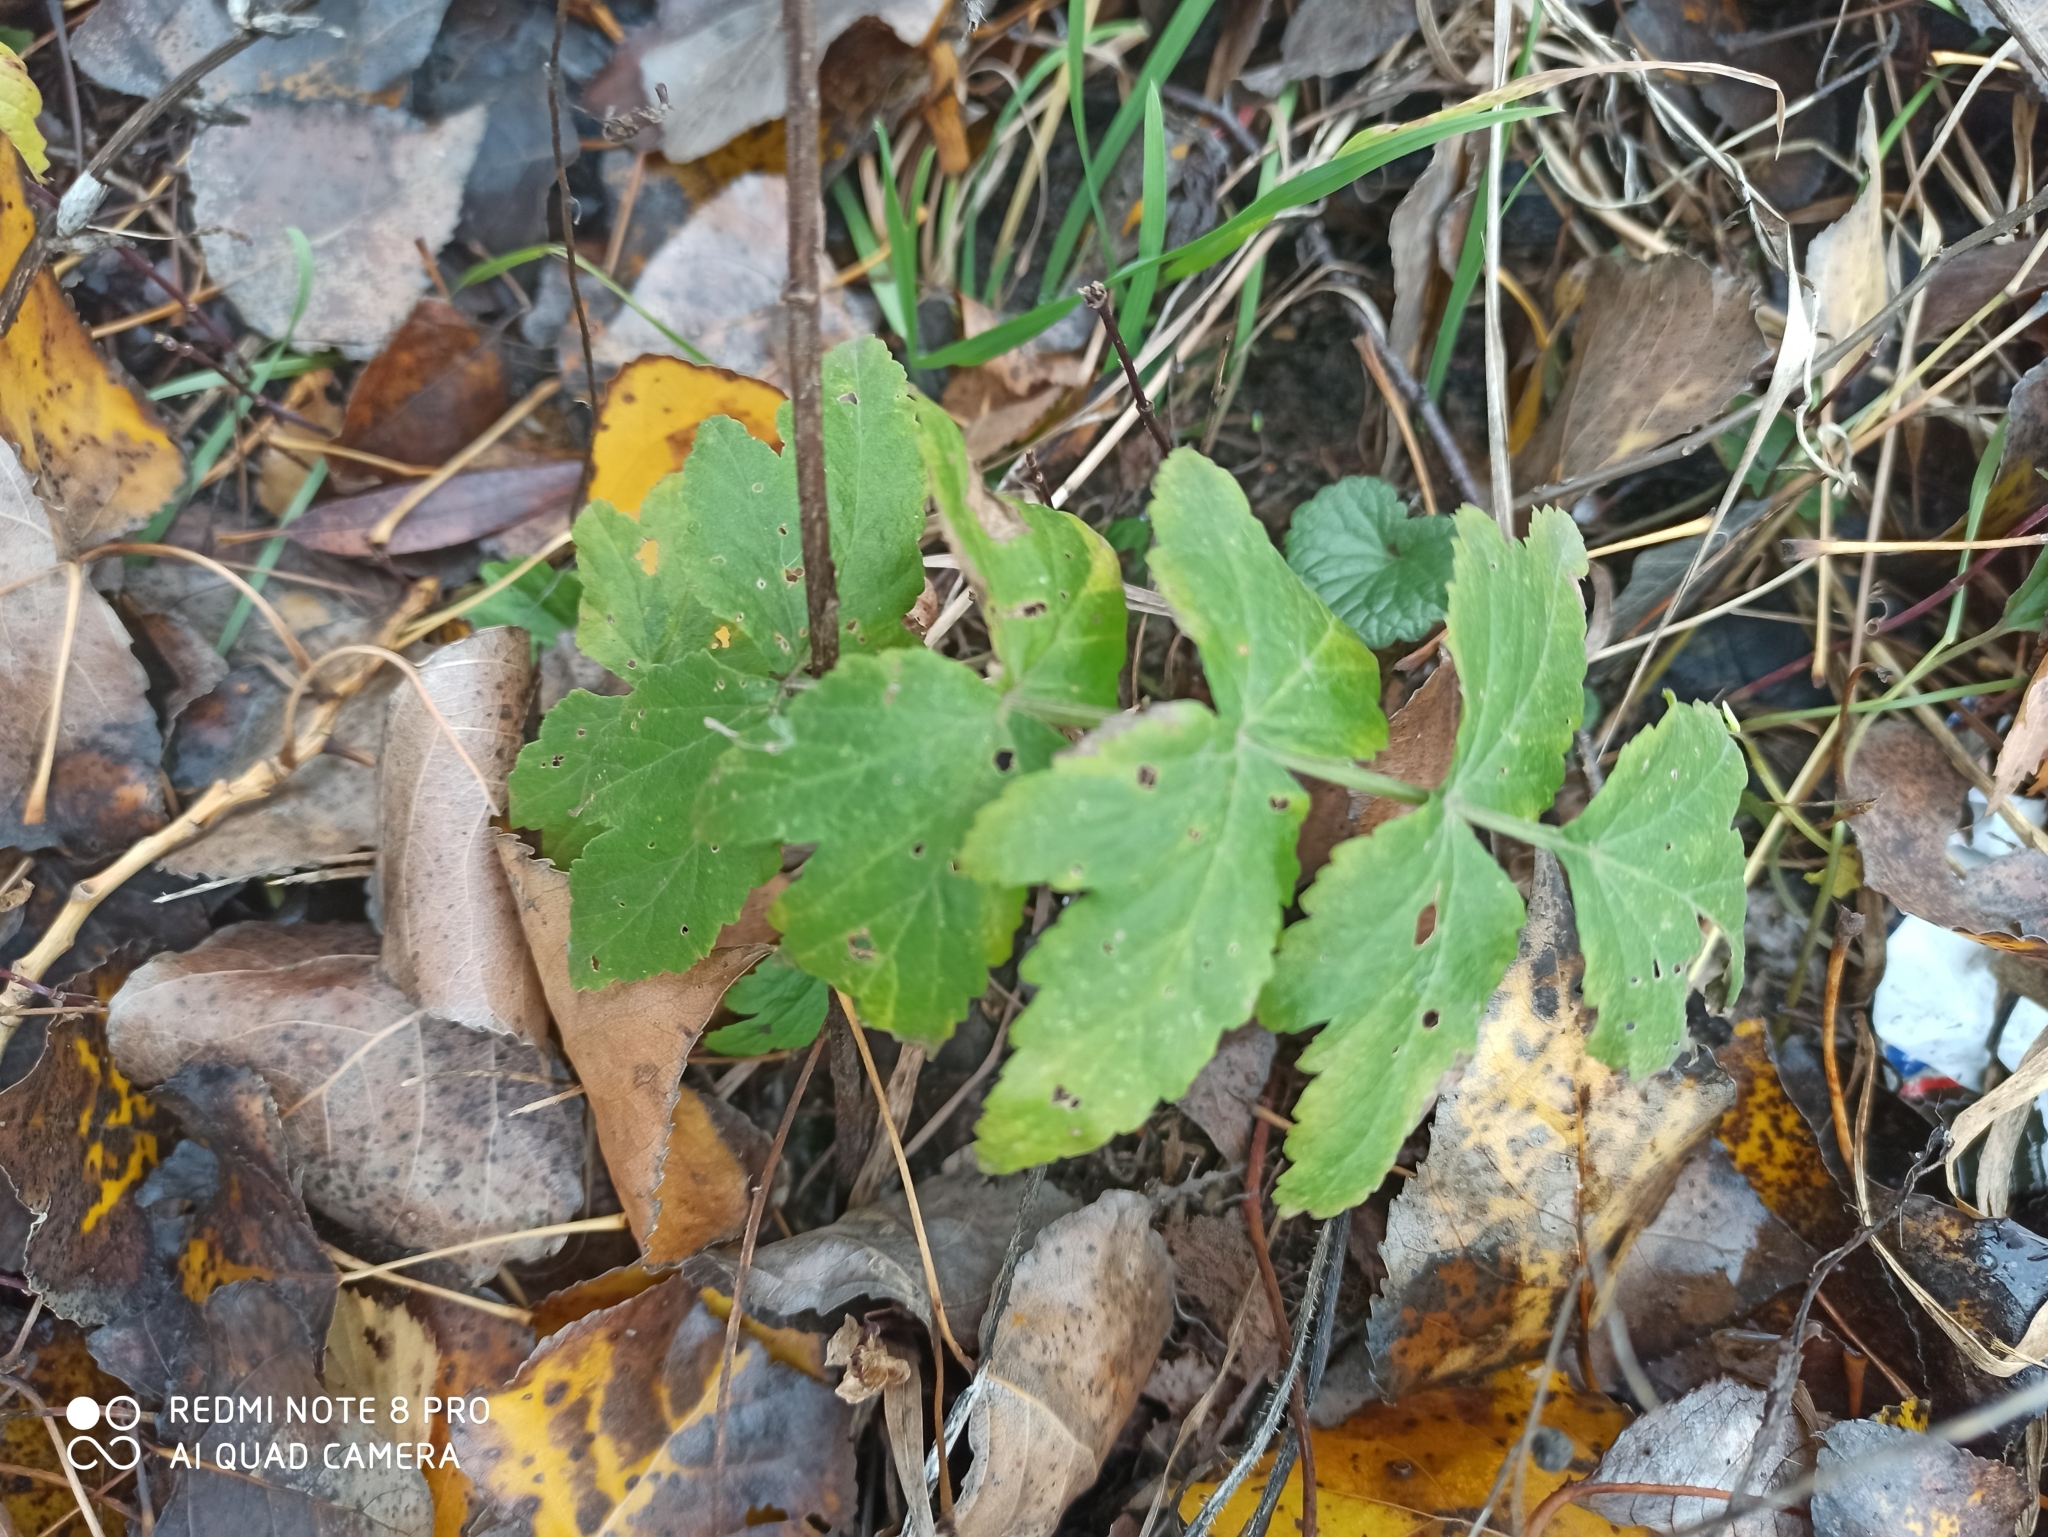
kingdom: Plantae
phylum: Tracheophyta
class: Magnoliopsida
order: Apiales
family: Apiaceae
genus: Pastinaca
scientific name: Pastinaca sativa
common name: Wild parsnip
